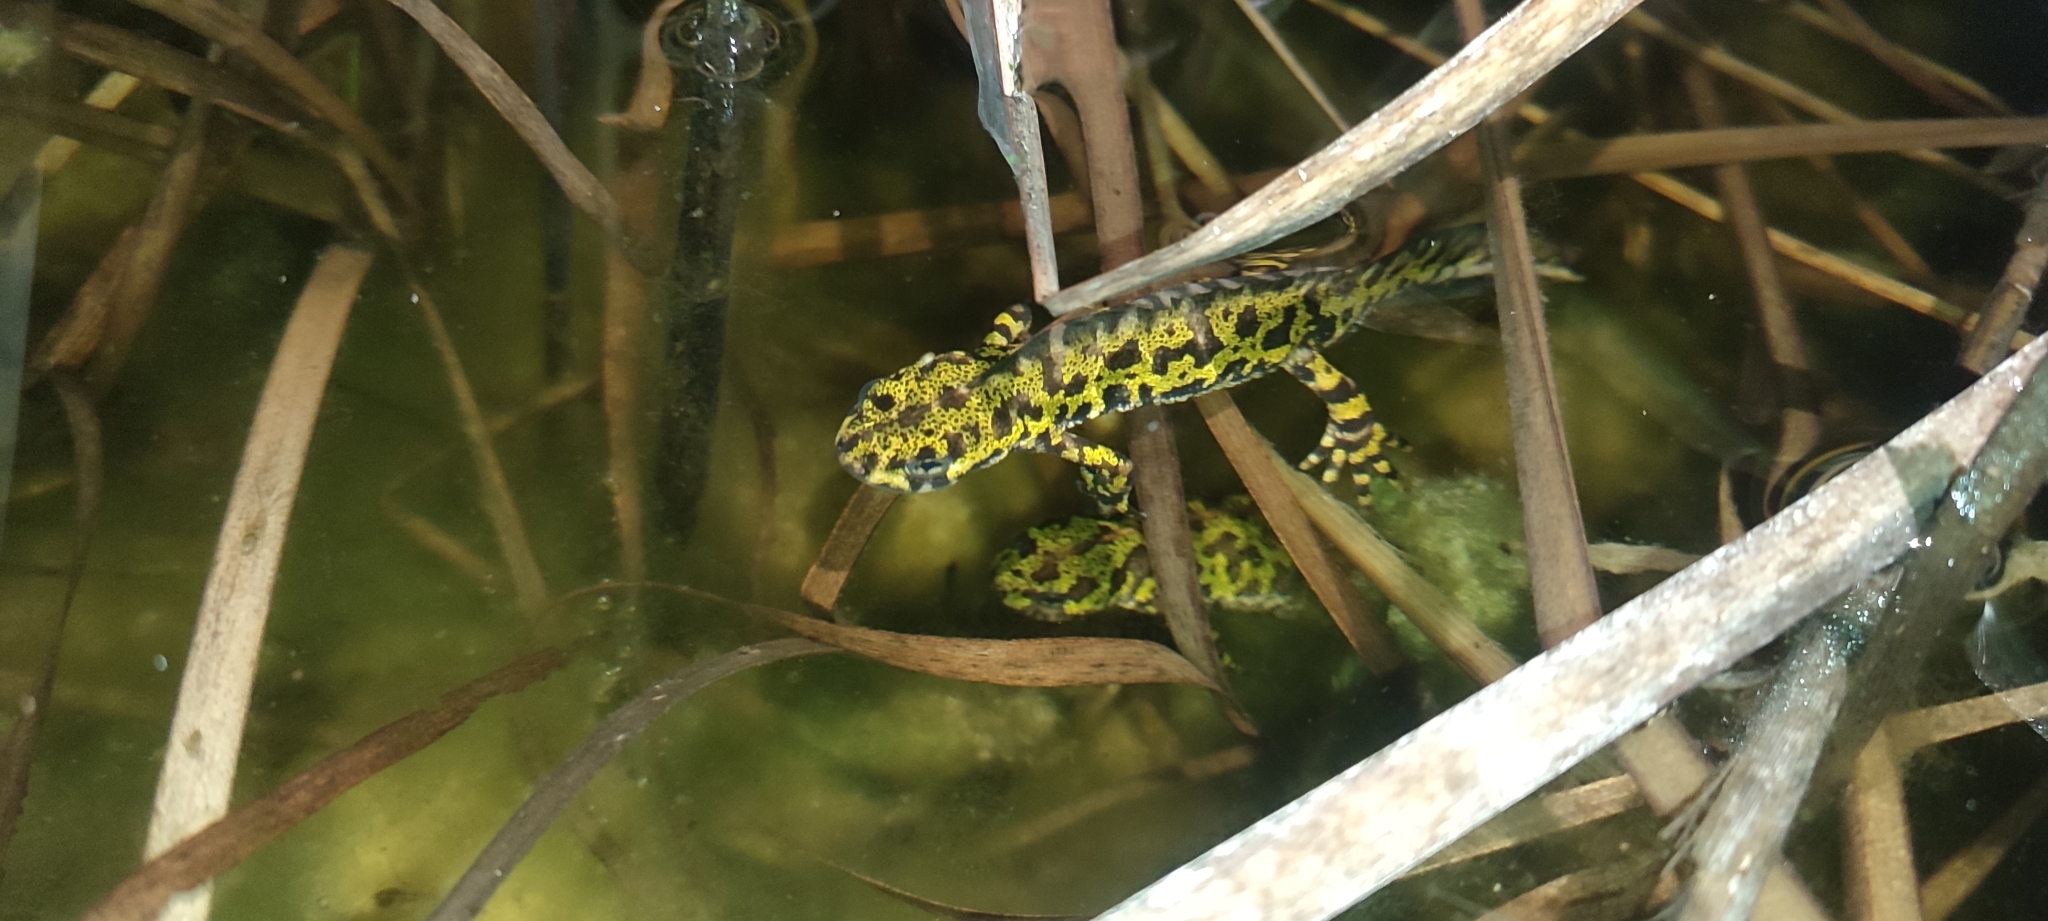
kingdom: Animalia
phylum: Chordata
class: Amphibia
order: Caudata
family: Salamandridae
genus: Triturus
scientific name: Triturus marmoratus
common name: Marbled newt
